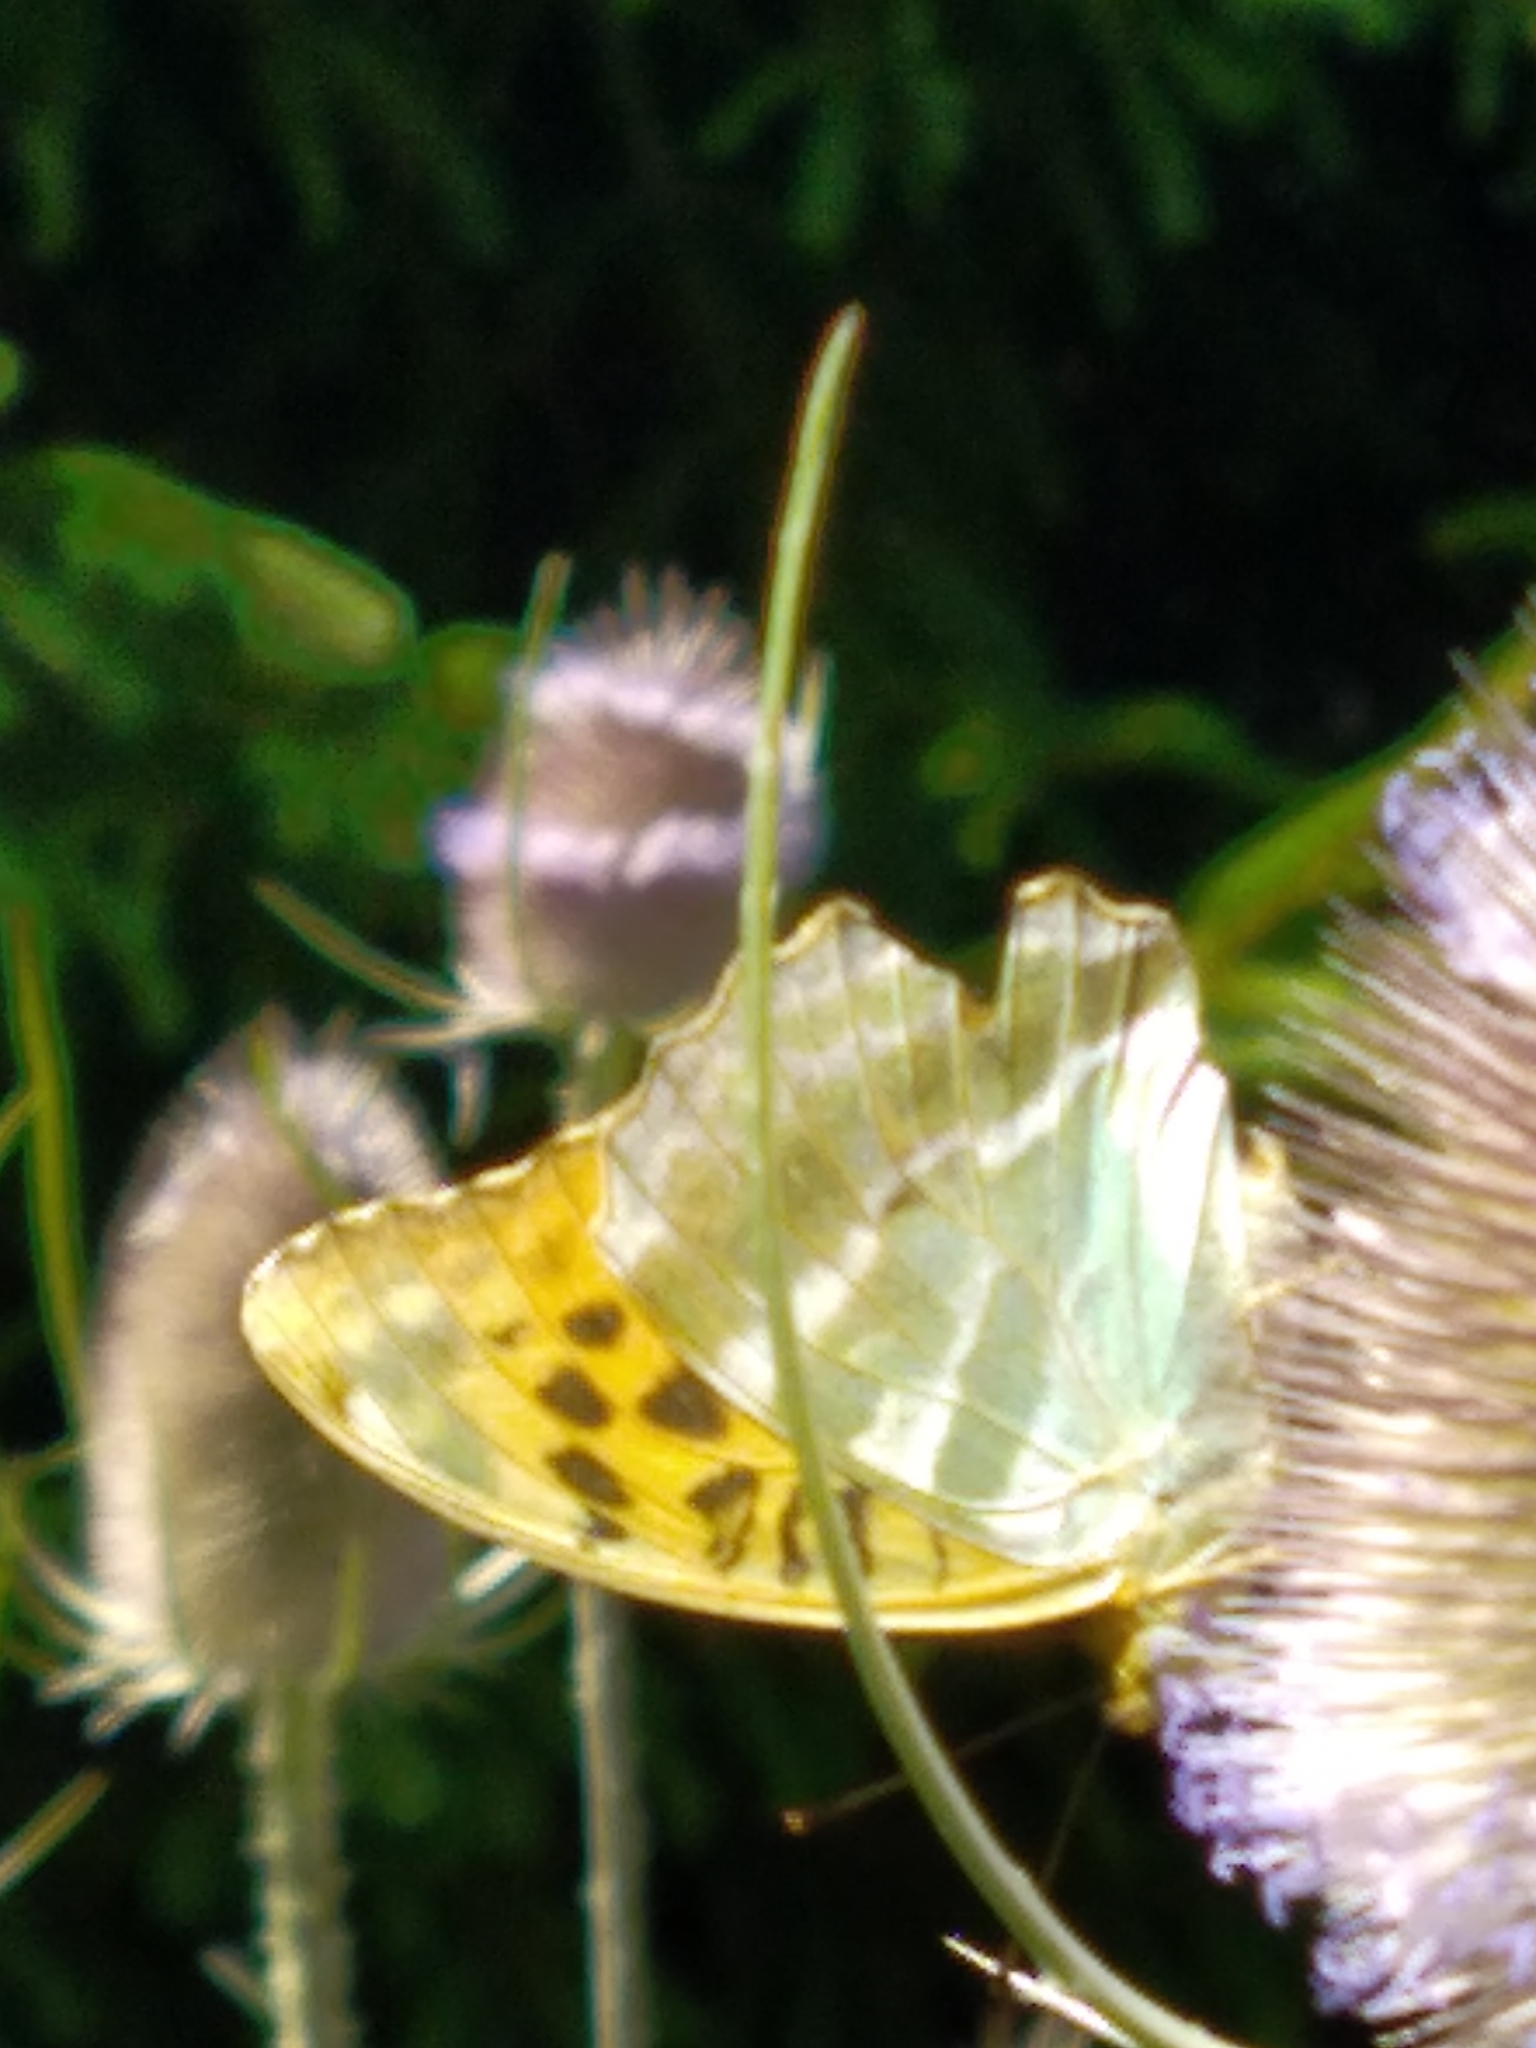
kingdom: Animalia
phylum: Arthropoda
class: Insecta
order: Lepidoptera
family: Nymphalidae
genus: Argynnis
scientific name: Argynnis paphia
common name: Silver-washed fritillary
